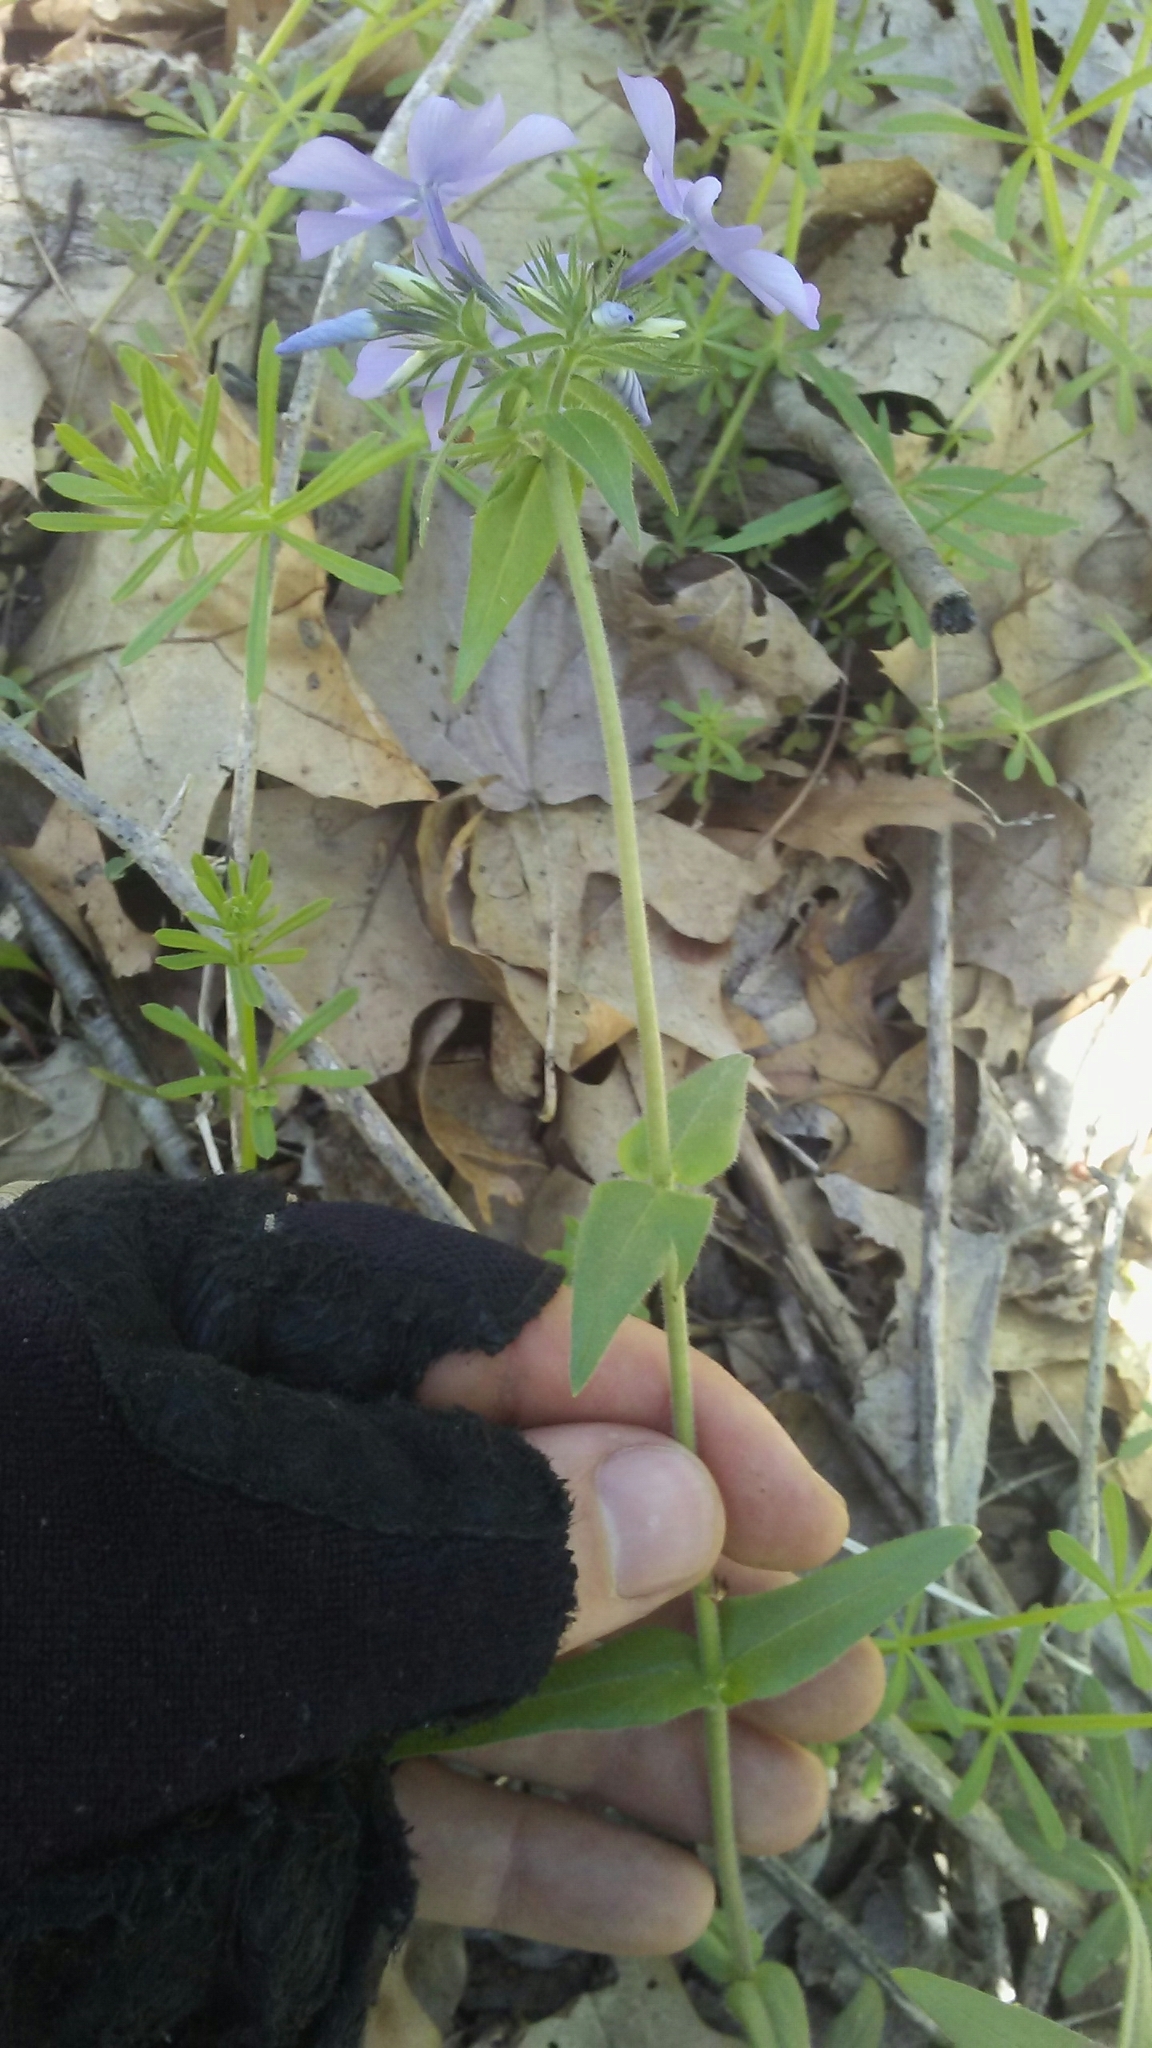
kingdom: Plantae
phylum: Tracheophyta
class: Magnoliopsida
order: Ericales
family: Polemoniaceae
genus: Phlox
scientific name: Phlox divaricata
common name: Blue phlox
